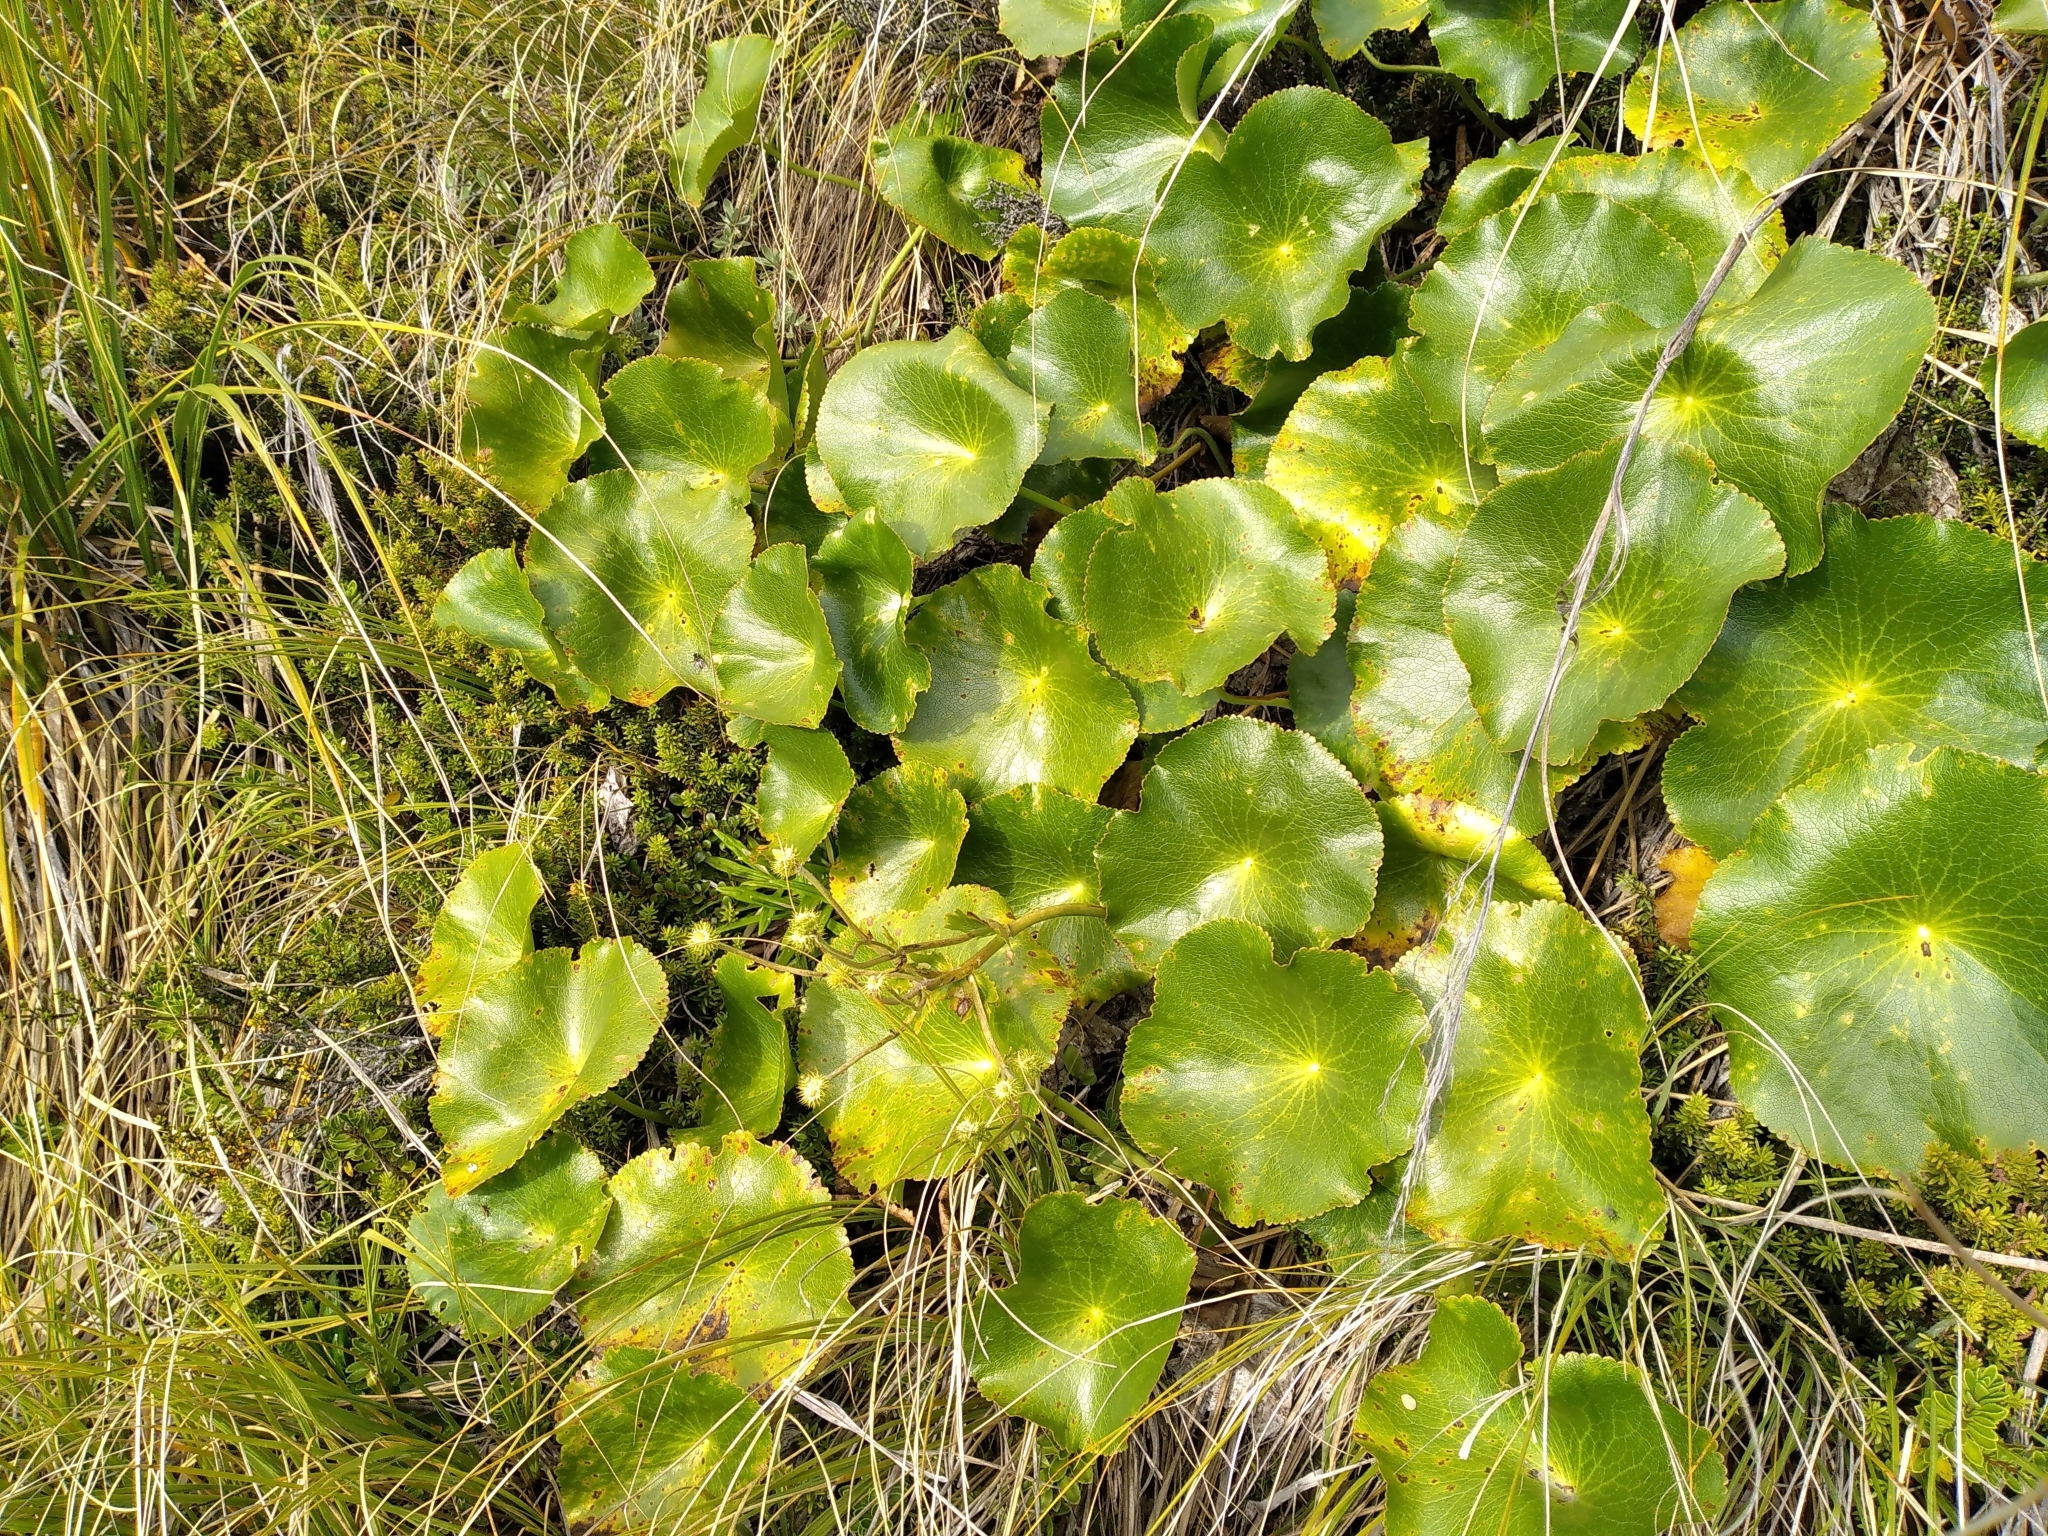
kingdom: Plantae
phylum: Tracheophyta
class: Magnoliopsida
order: Ranunculales
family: Ranunculaceae
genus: Ranunculus
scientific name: Ranunculus lyallii
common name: Mountain-lily
